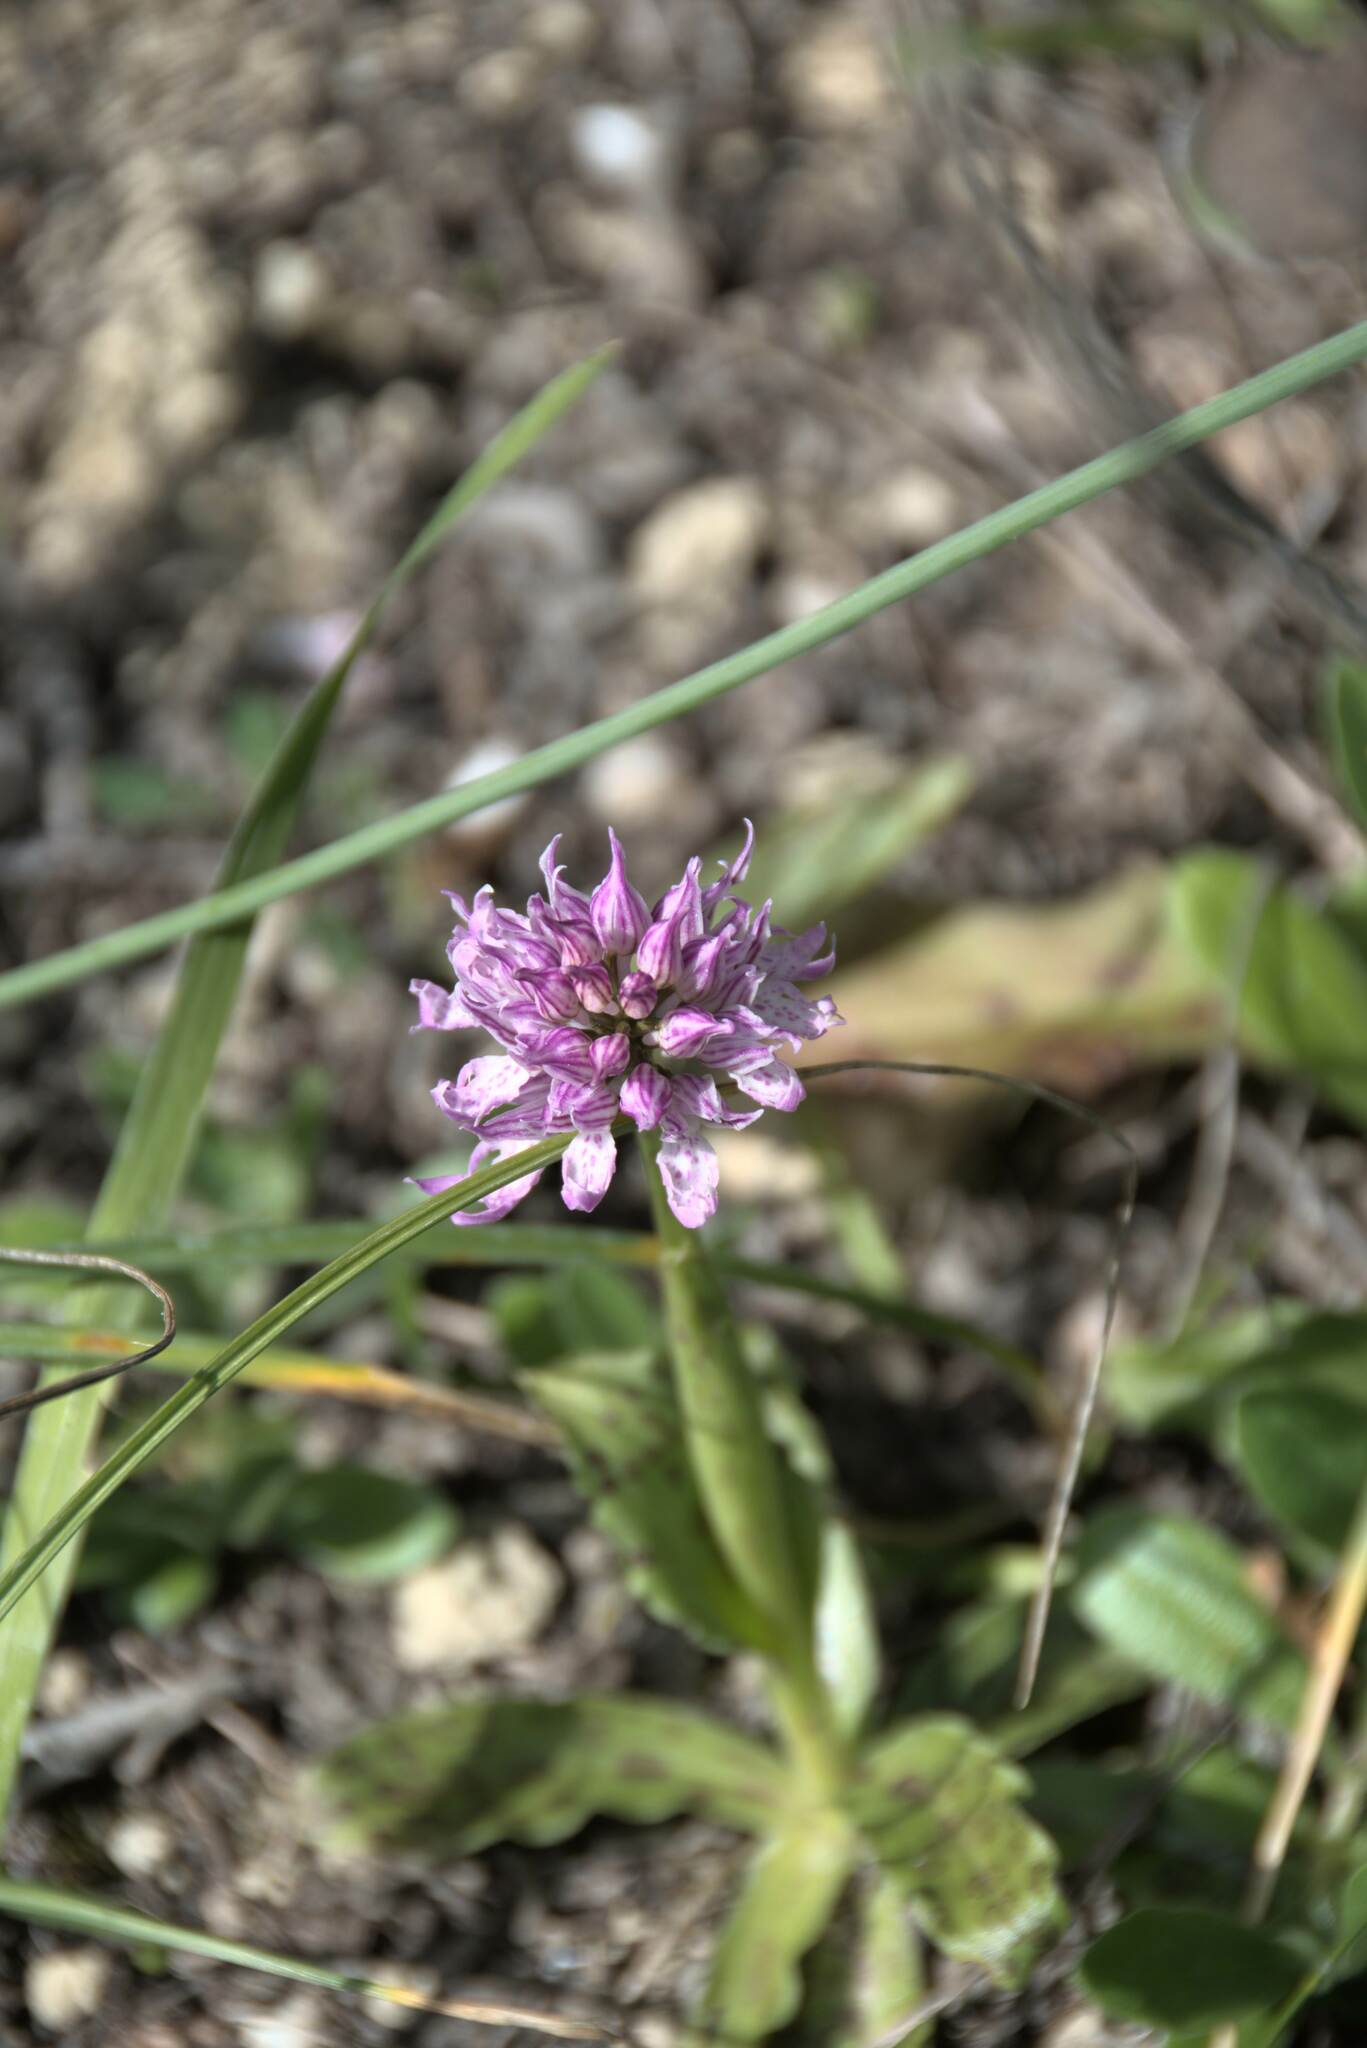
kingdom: Plantae
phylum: Tracheophyta
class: Liliopsida
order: Asparagales
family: Orchidaceae
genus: Orchis
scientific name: Orchis italica
